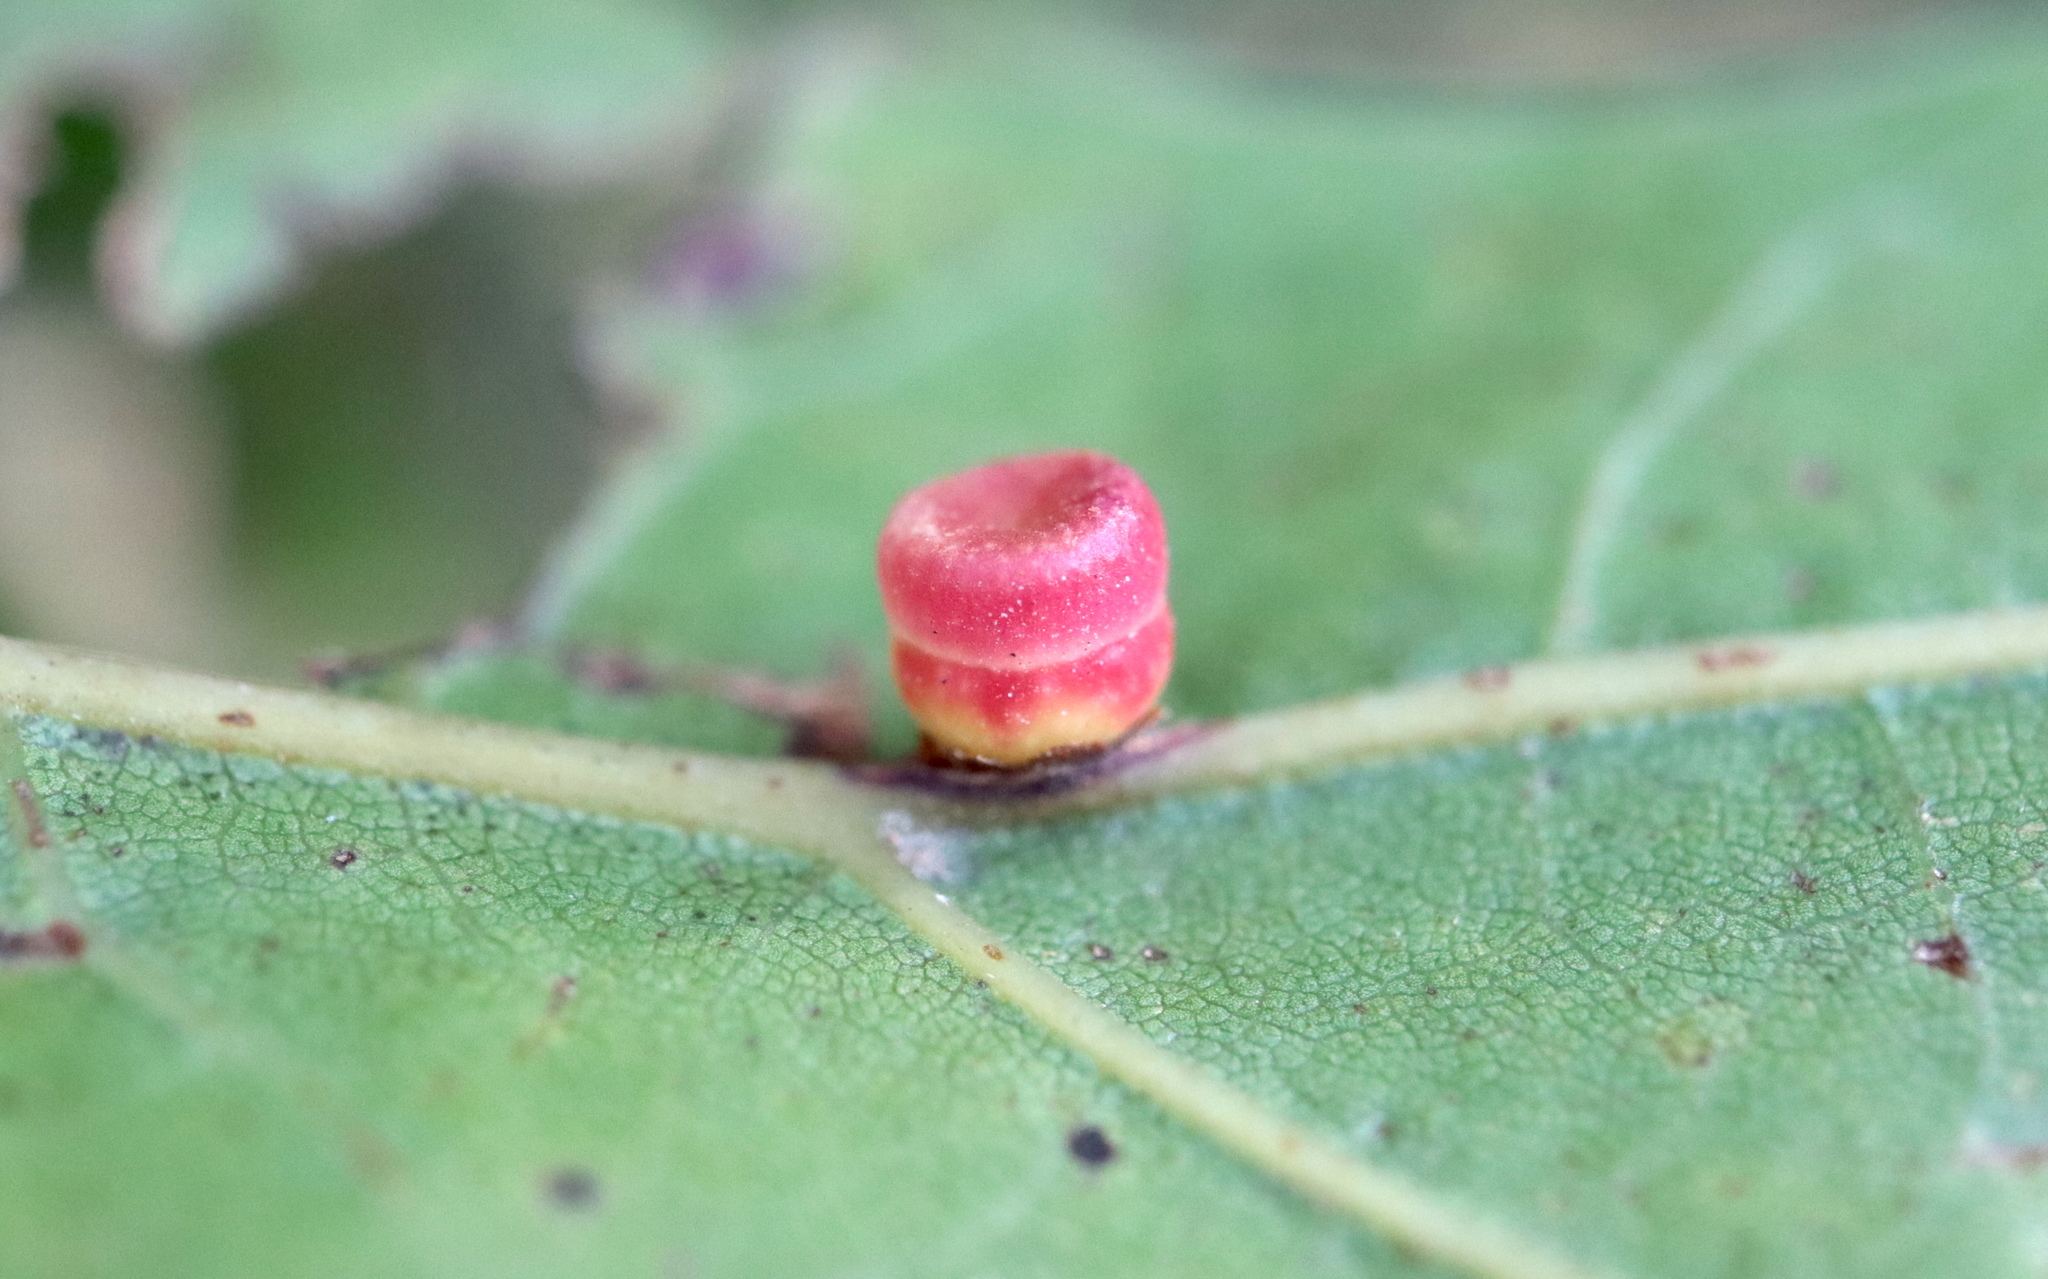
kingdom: Animalia
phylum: Arthropoda
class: Insecta
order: Hymenoptera
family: Cynipidae
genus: Kokkocynips
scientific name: Kokkocynips rileyi
